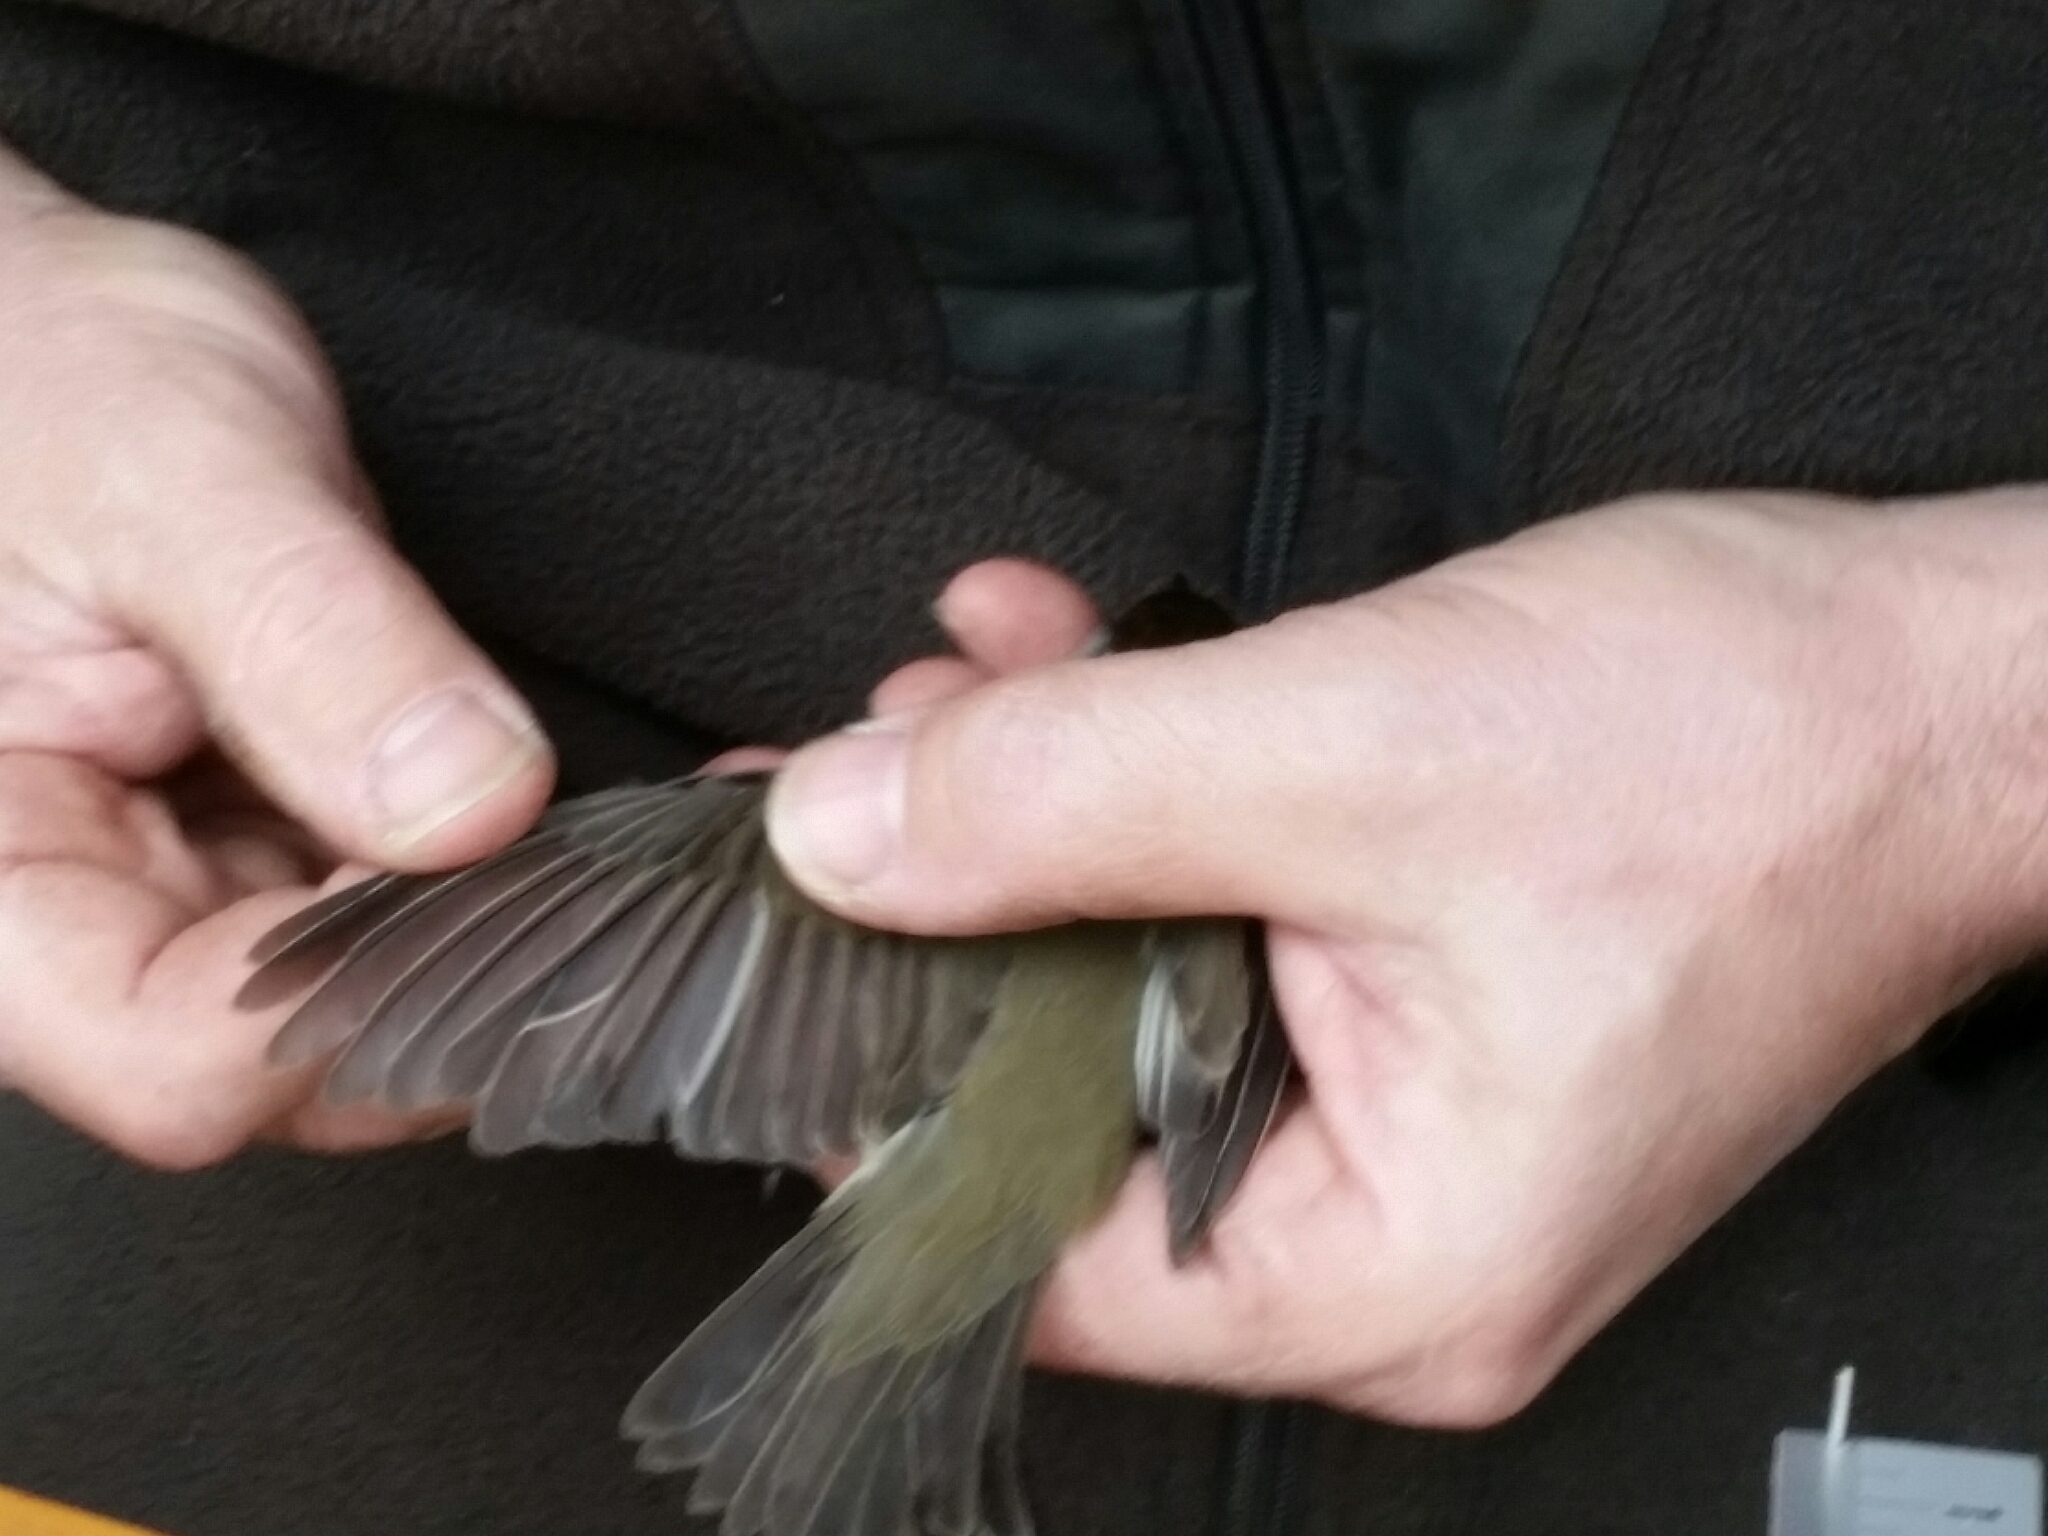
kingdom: Animalia
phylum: Chordata
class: Aves
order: Passeriformes
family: Sylviidae
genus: Sylvia
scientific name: Sylvia atricapilla
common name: Eurasian blackcap
